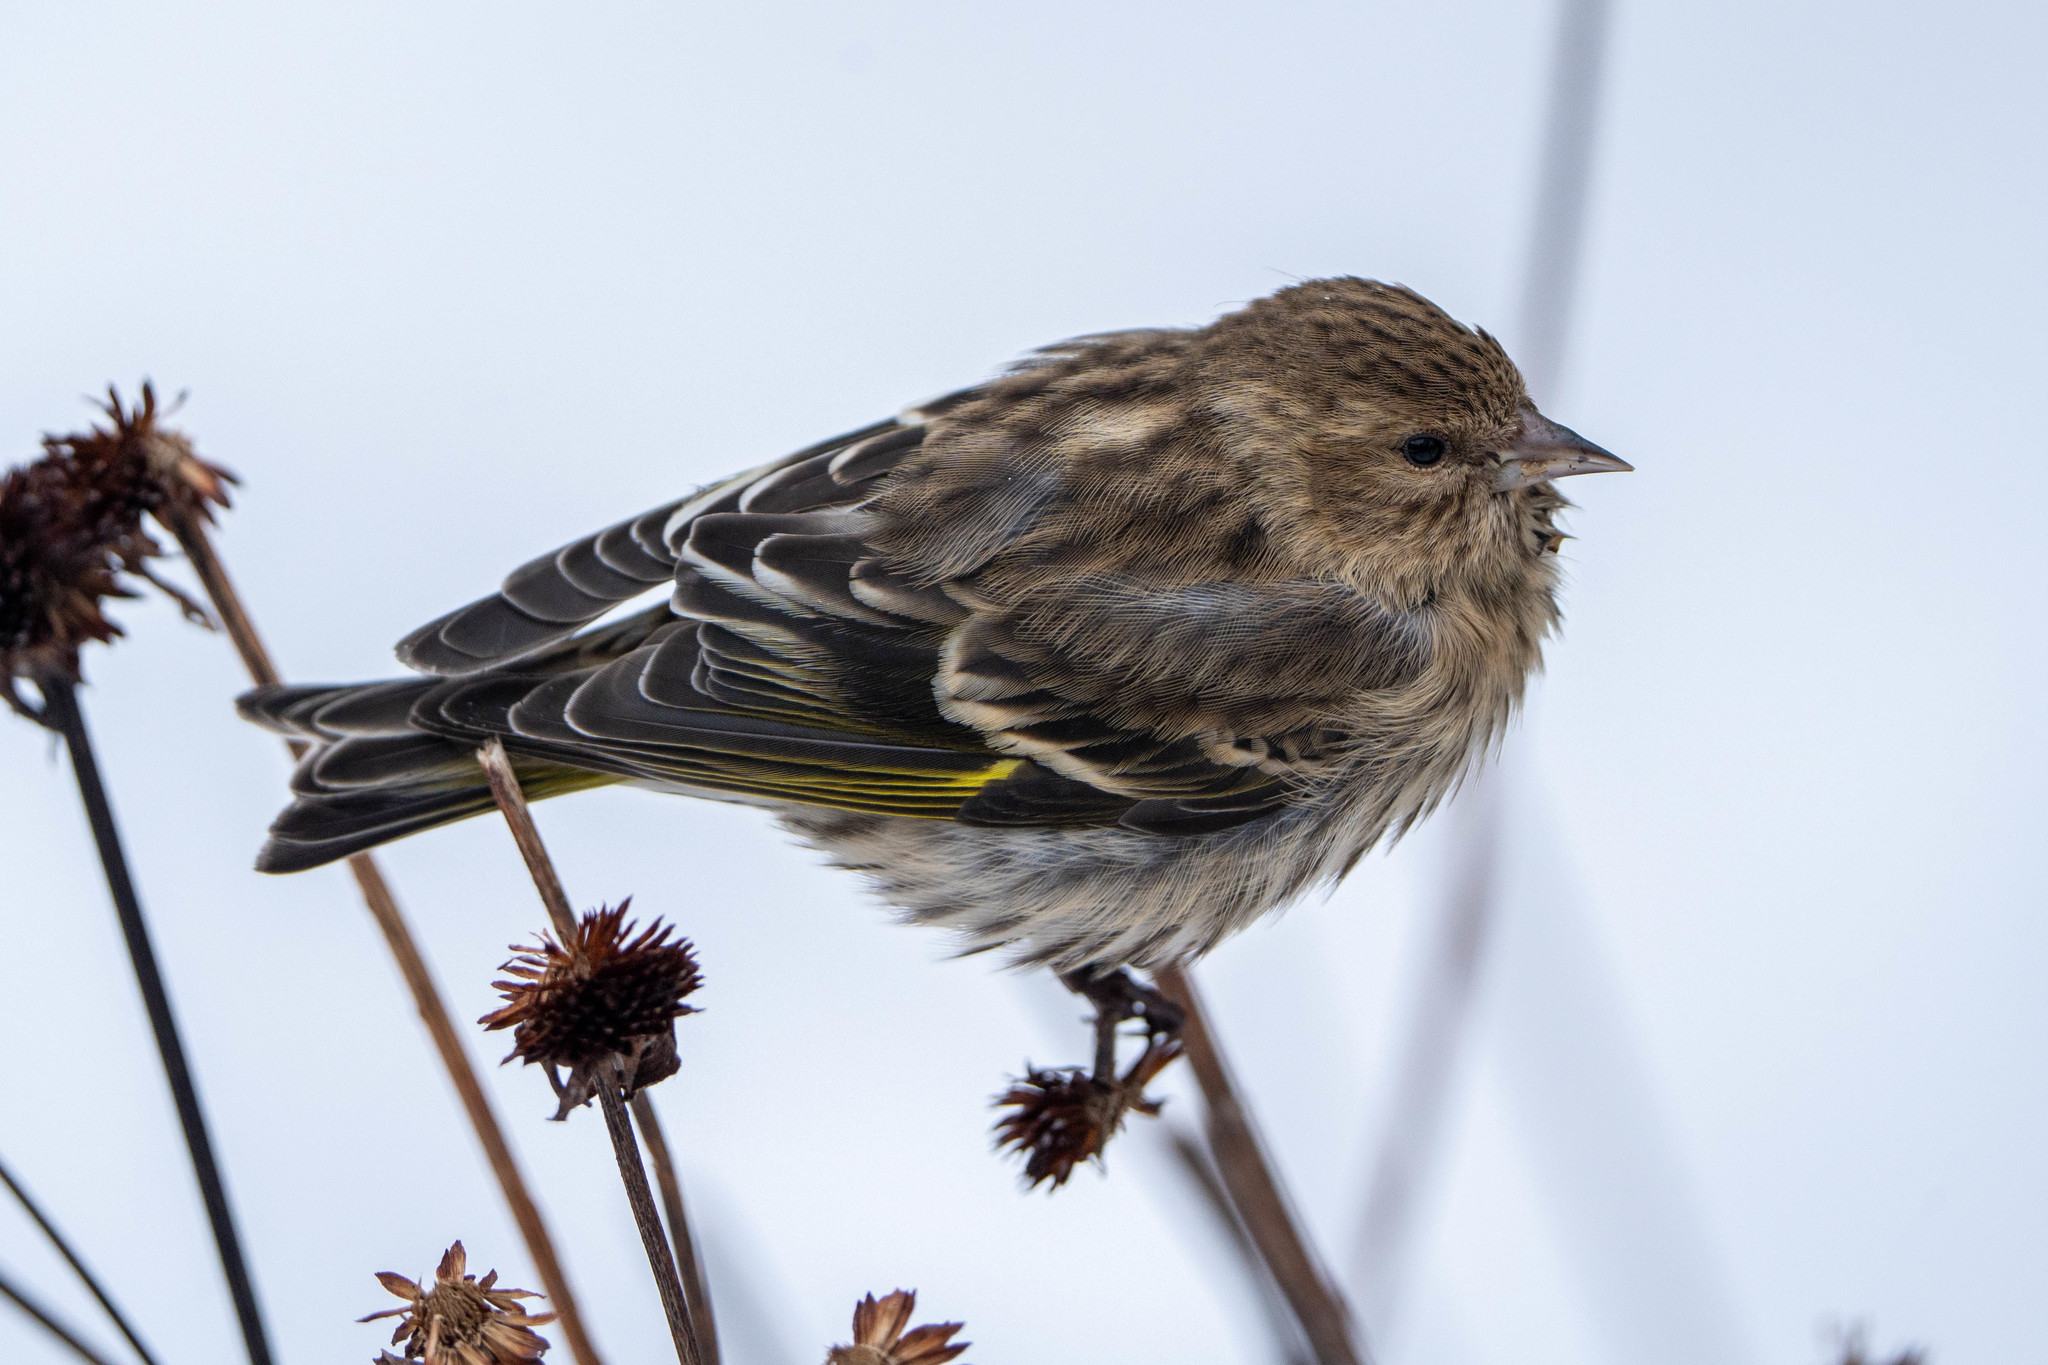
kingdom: Animalia
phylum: Chordata
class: Aves
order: Passeriformes
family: Fringillidae
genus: Spinus
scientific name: Spinus pinus
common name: Pine siskin
